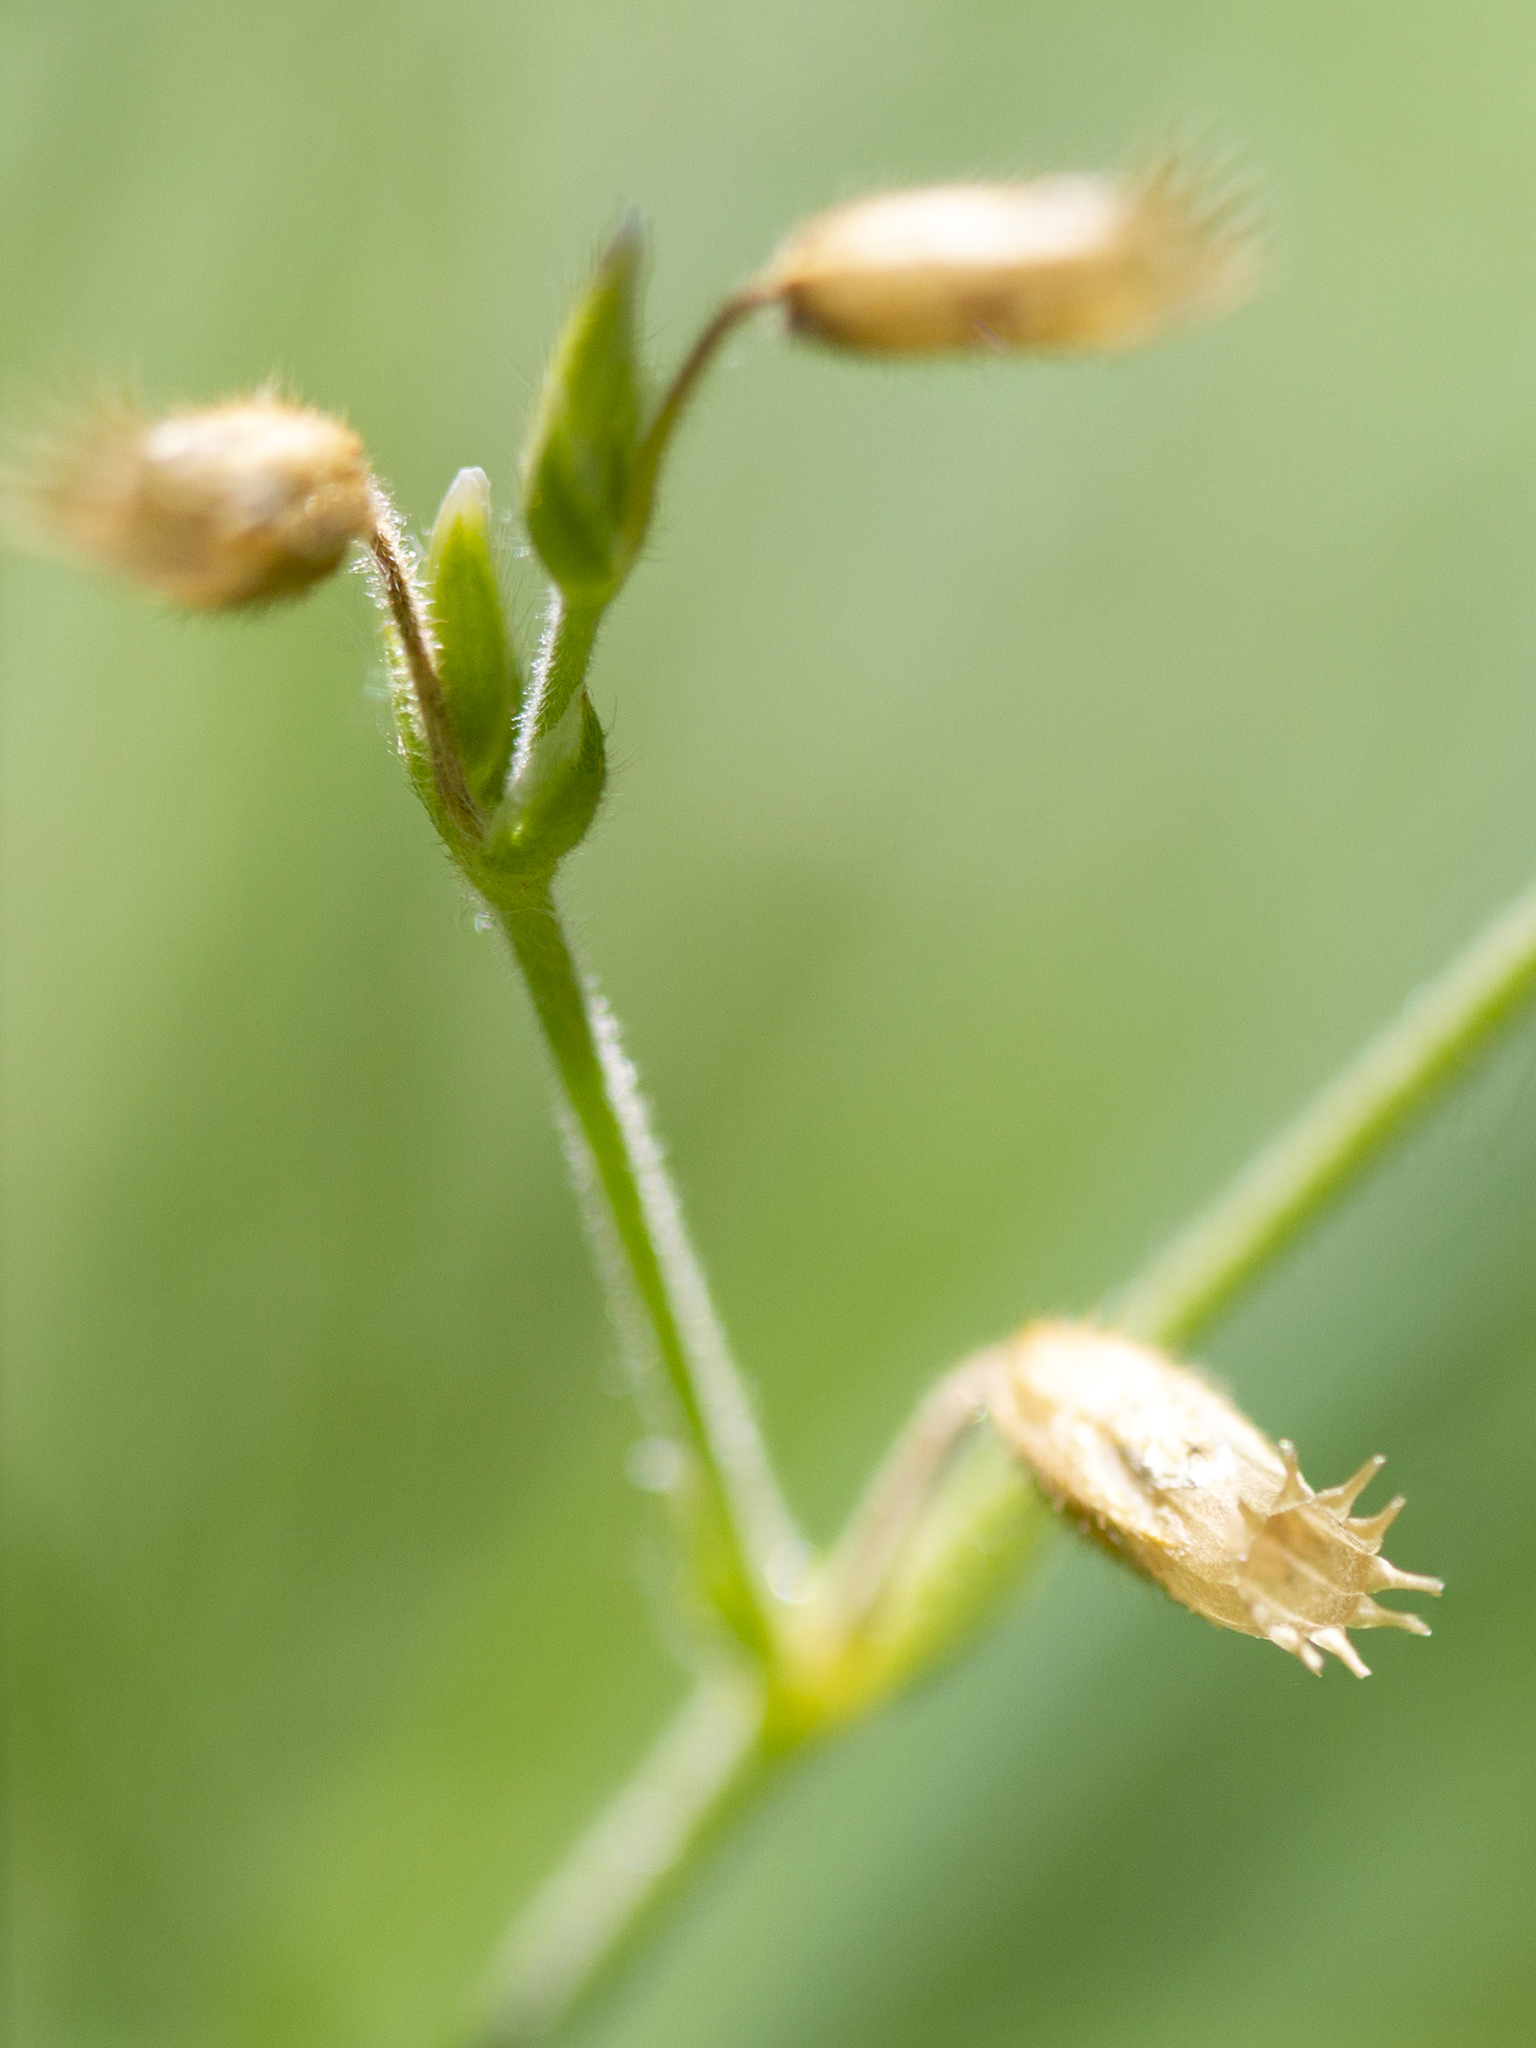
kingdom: Plantae
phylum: Tracheophyta
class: Magnoliopsida
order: Caryophyllales
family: Caryophyllaceae
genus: Cerastium
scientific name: Cerastium fontanum
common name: Common mouse-ear
